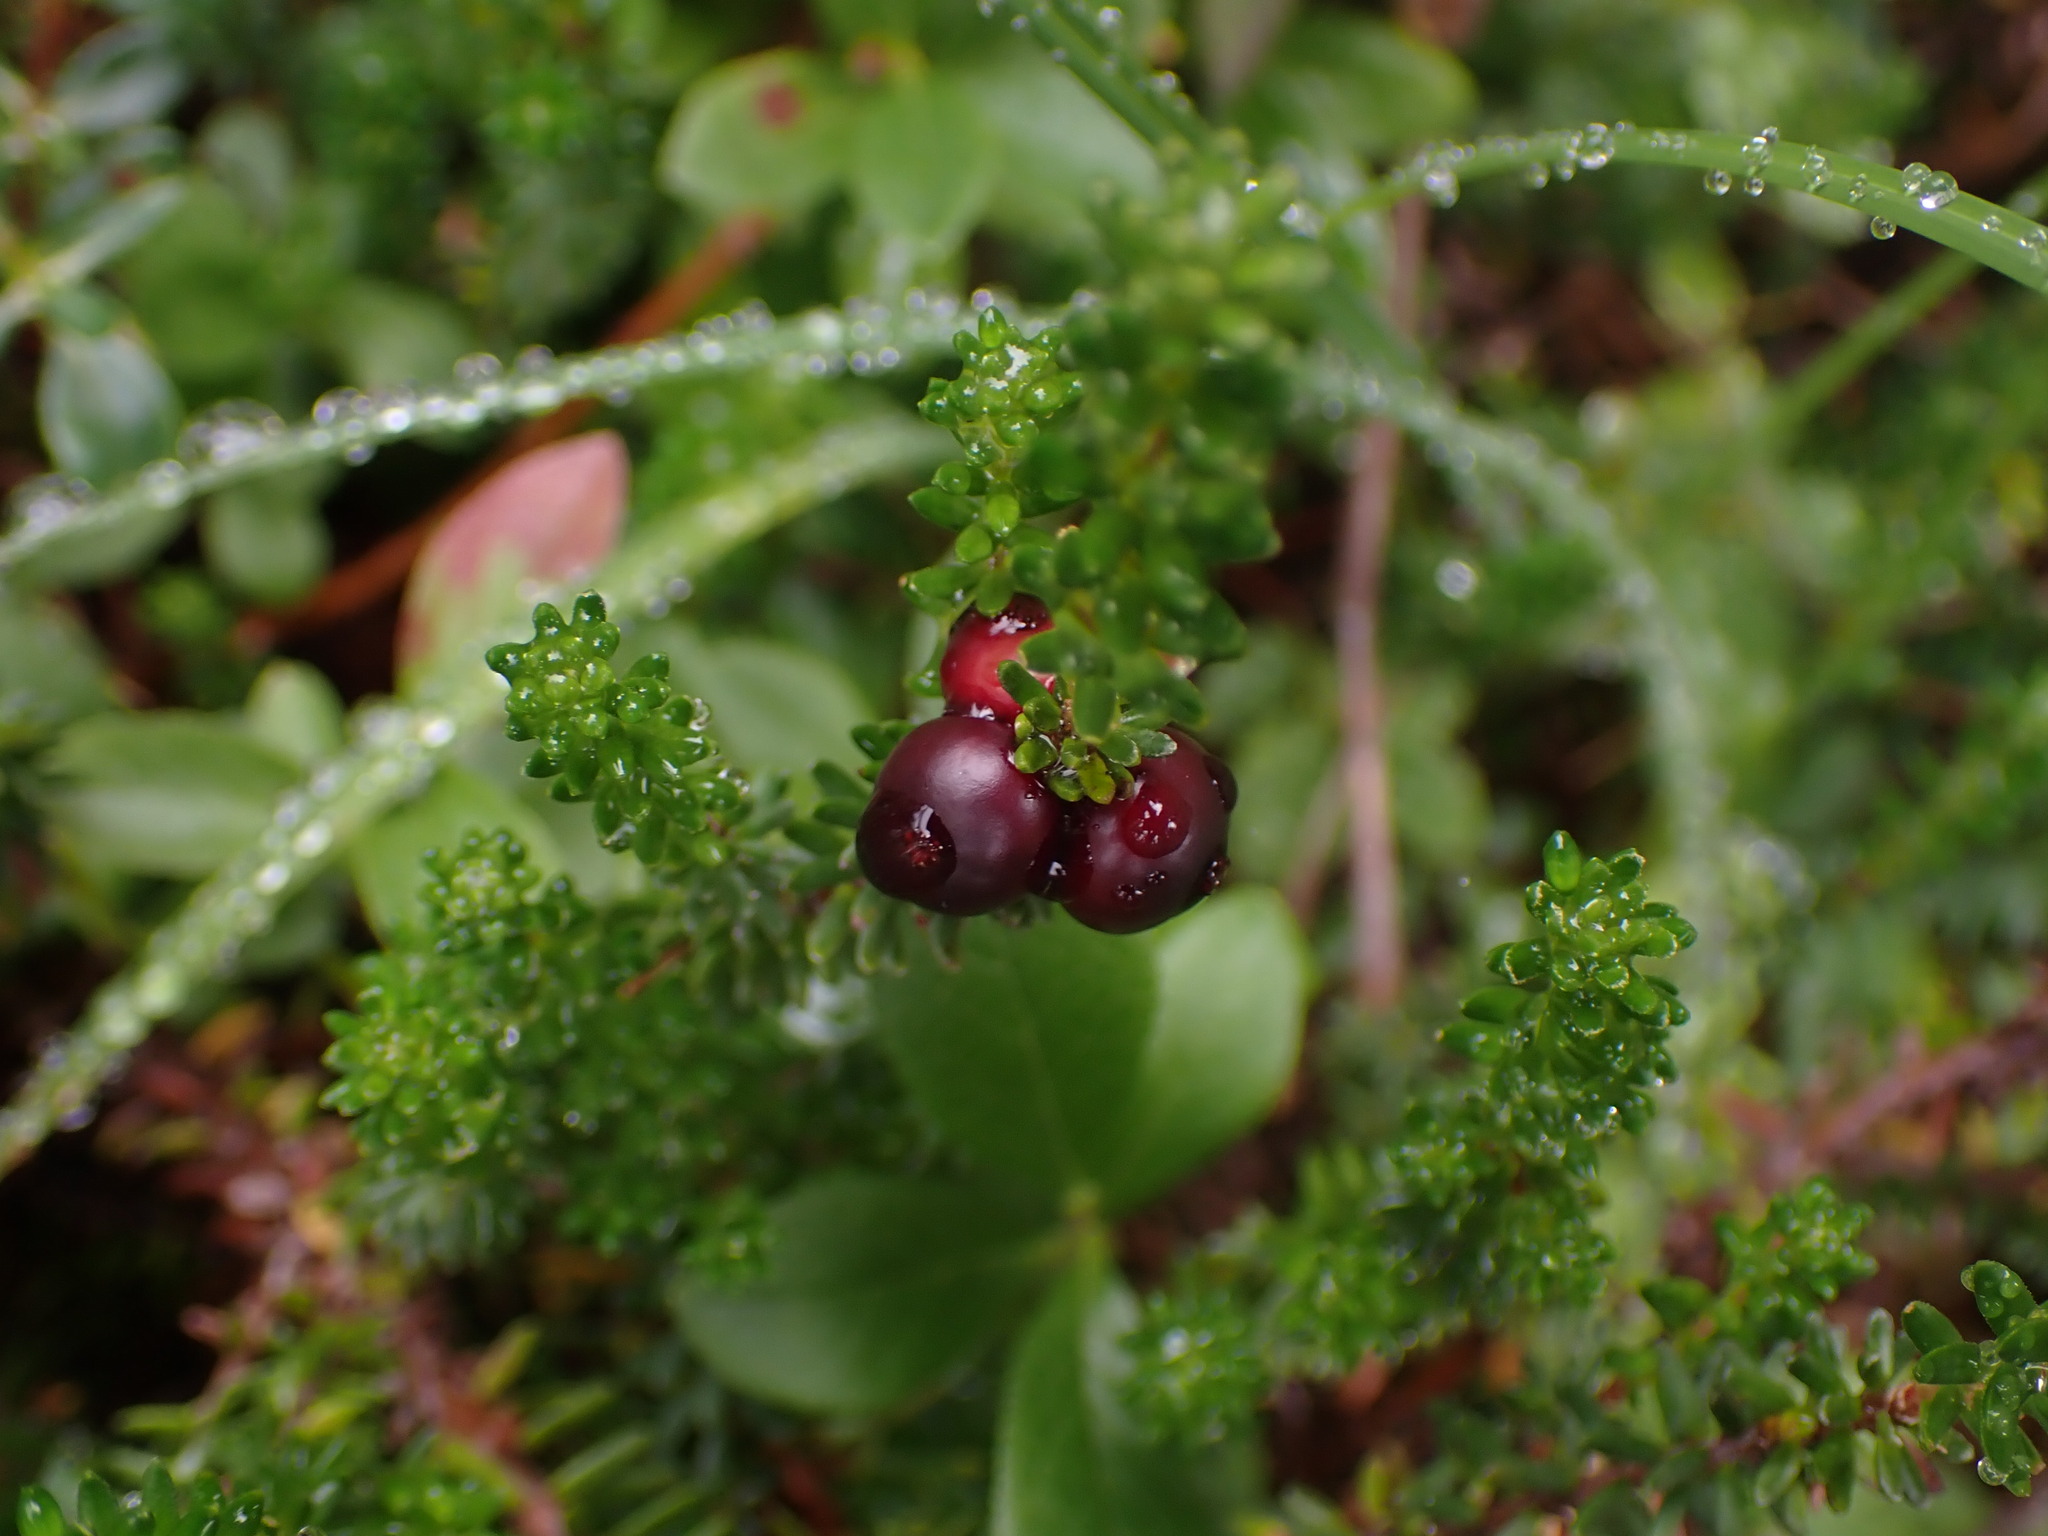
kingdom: Plantae
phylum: Tracheophyta
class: Magnoliopsida
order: Ericales
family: Ericaceae
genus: Empetrum
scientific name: Empetrum nigrum
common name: Black crowberry
